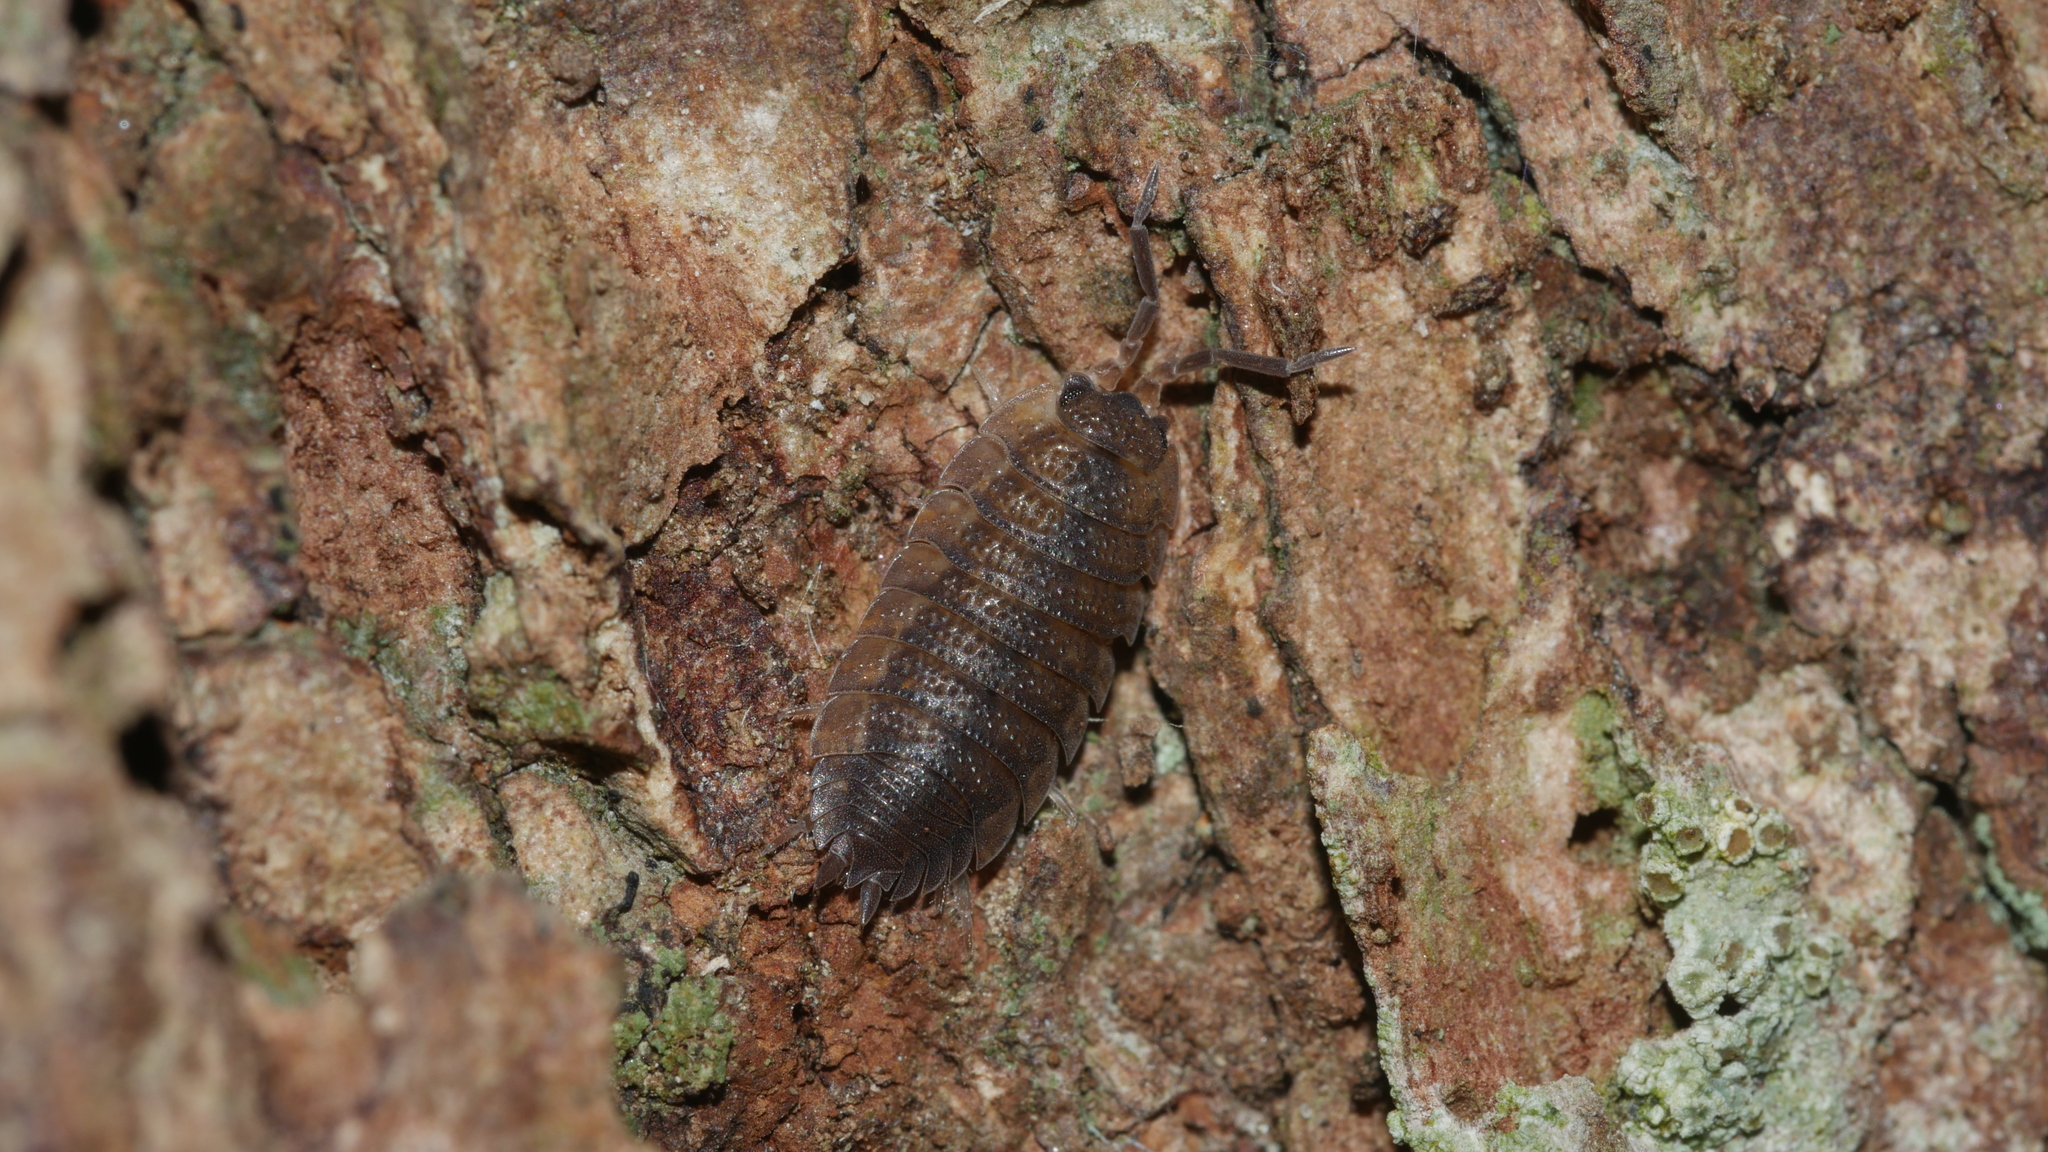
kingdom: Animalia
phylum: Arthropoda
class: Malacostraca
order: Isopoda
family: Porcellionidae
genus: Porcellio
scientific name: Porcellio scaber
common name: Common rough woodlouse
